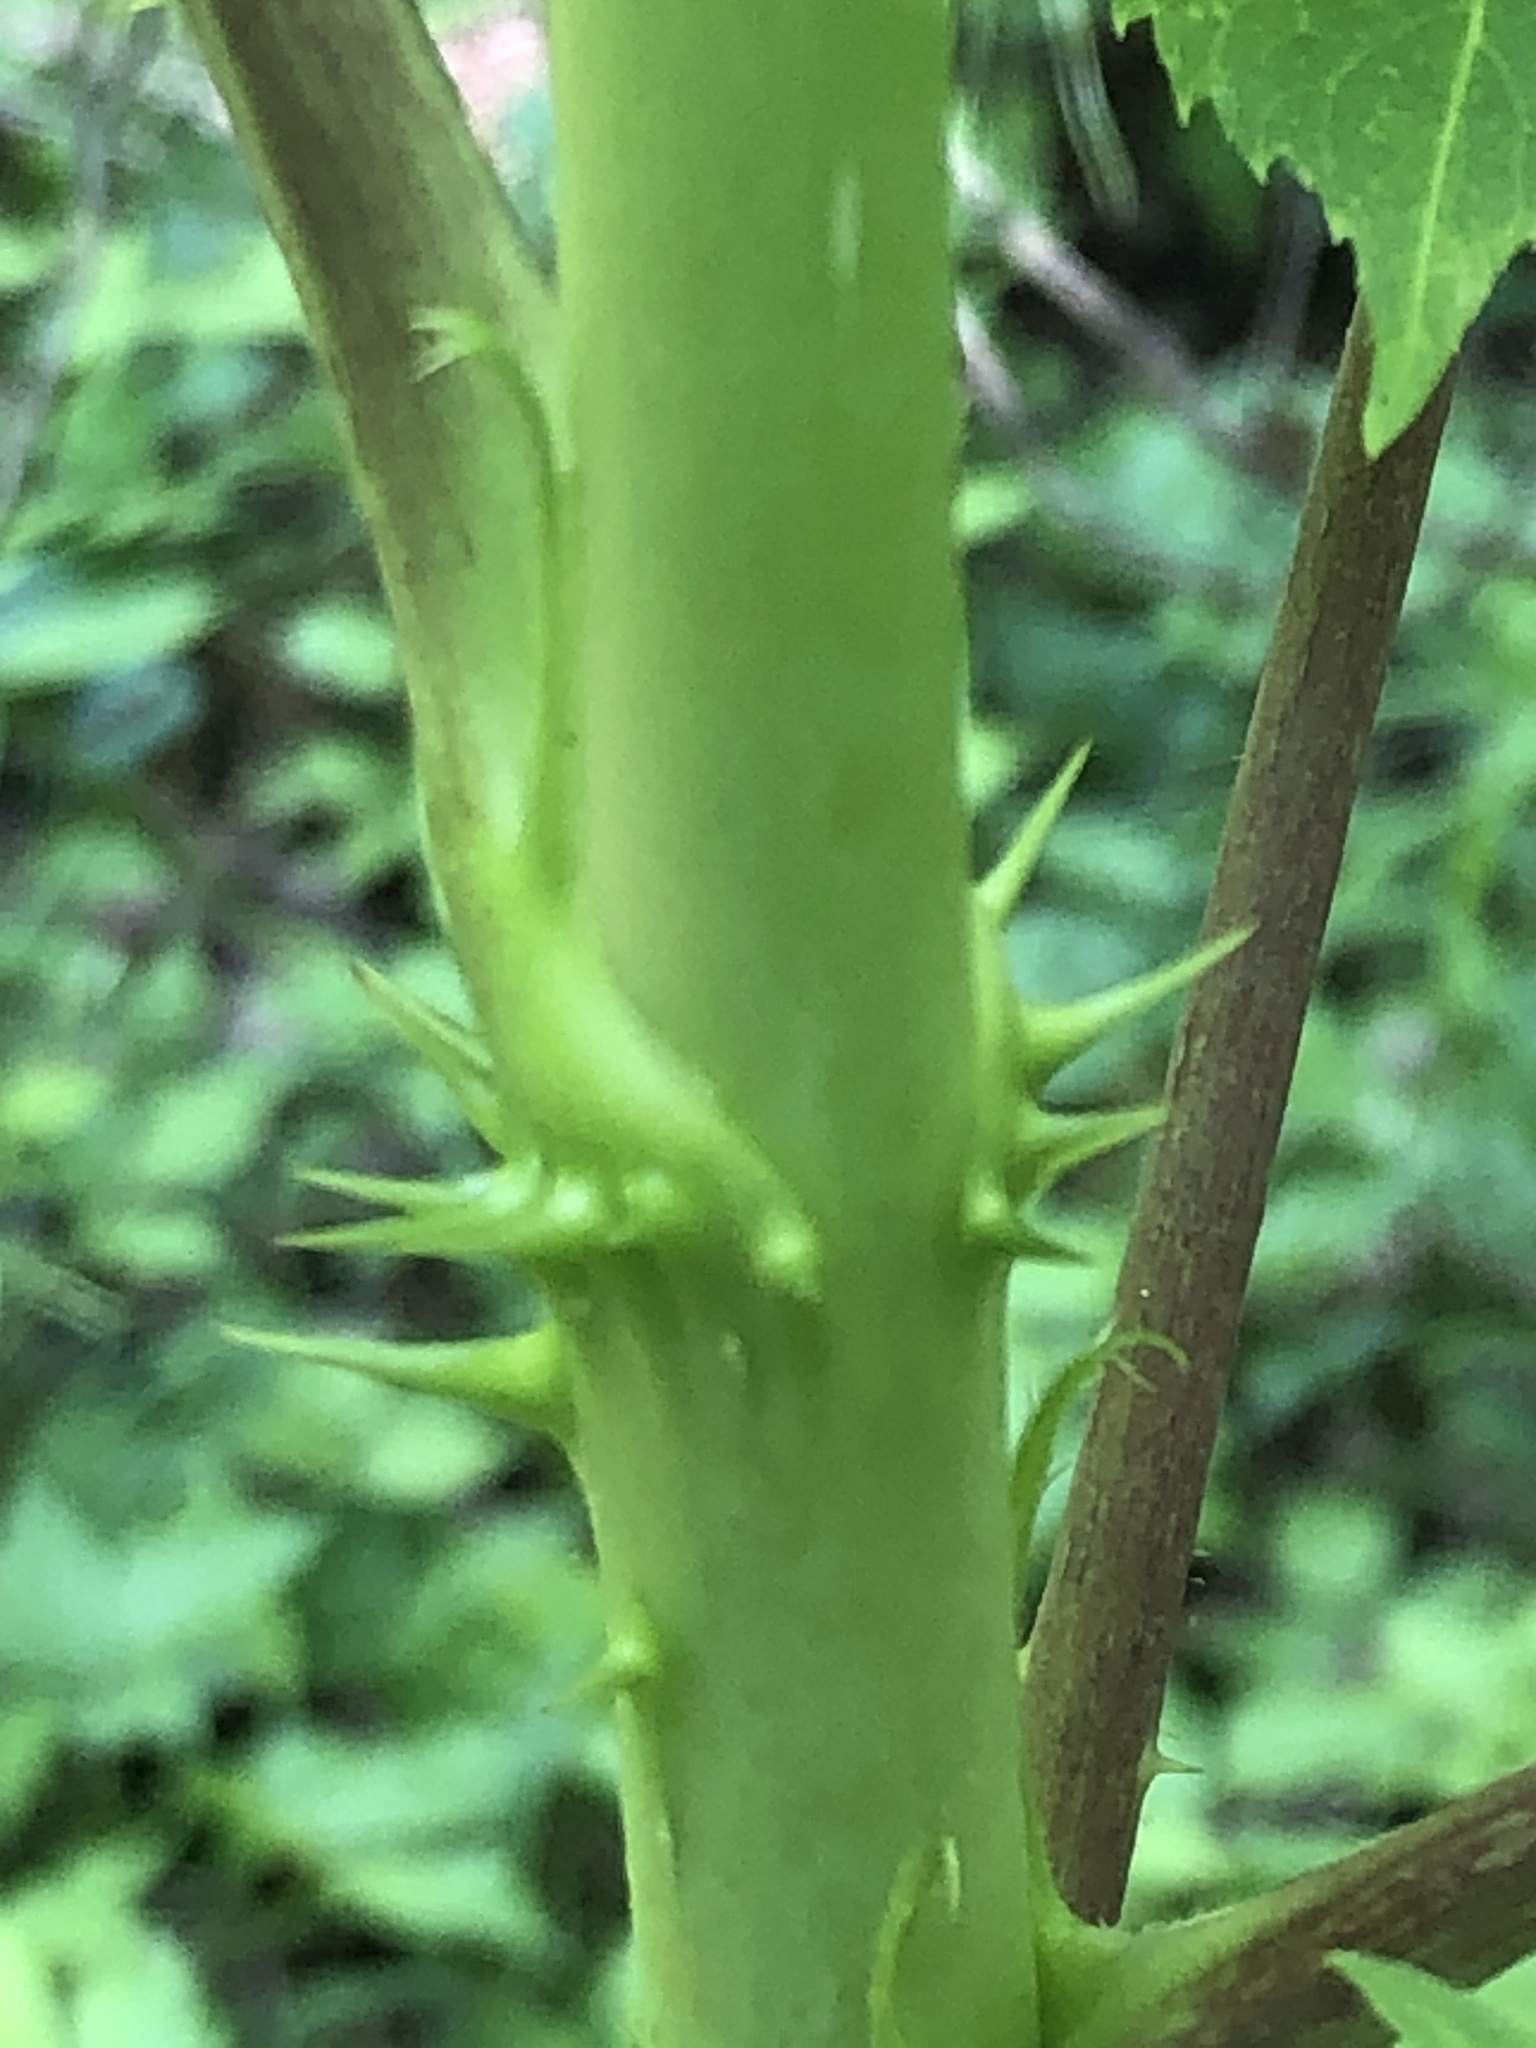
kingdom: Plantae
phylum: Tracheophyta
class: Magnoliopsida
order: Apiales
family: Araliaceae
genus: Aralia
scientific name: Aralia spinosa
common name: Hercules'-club
